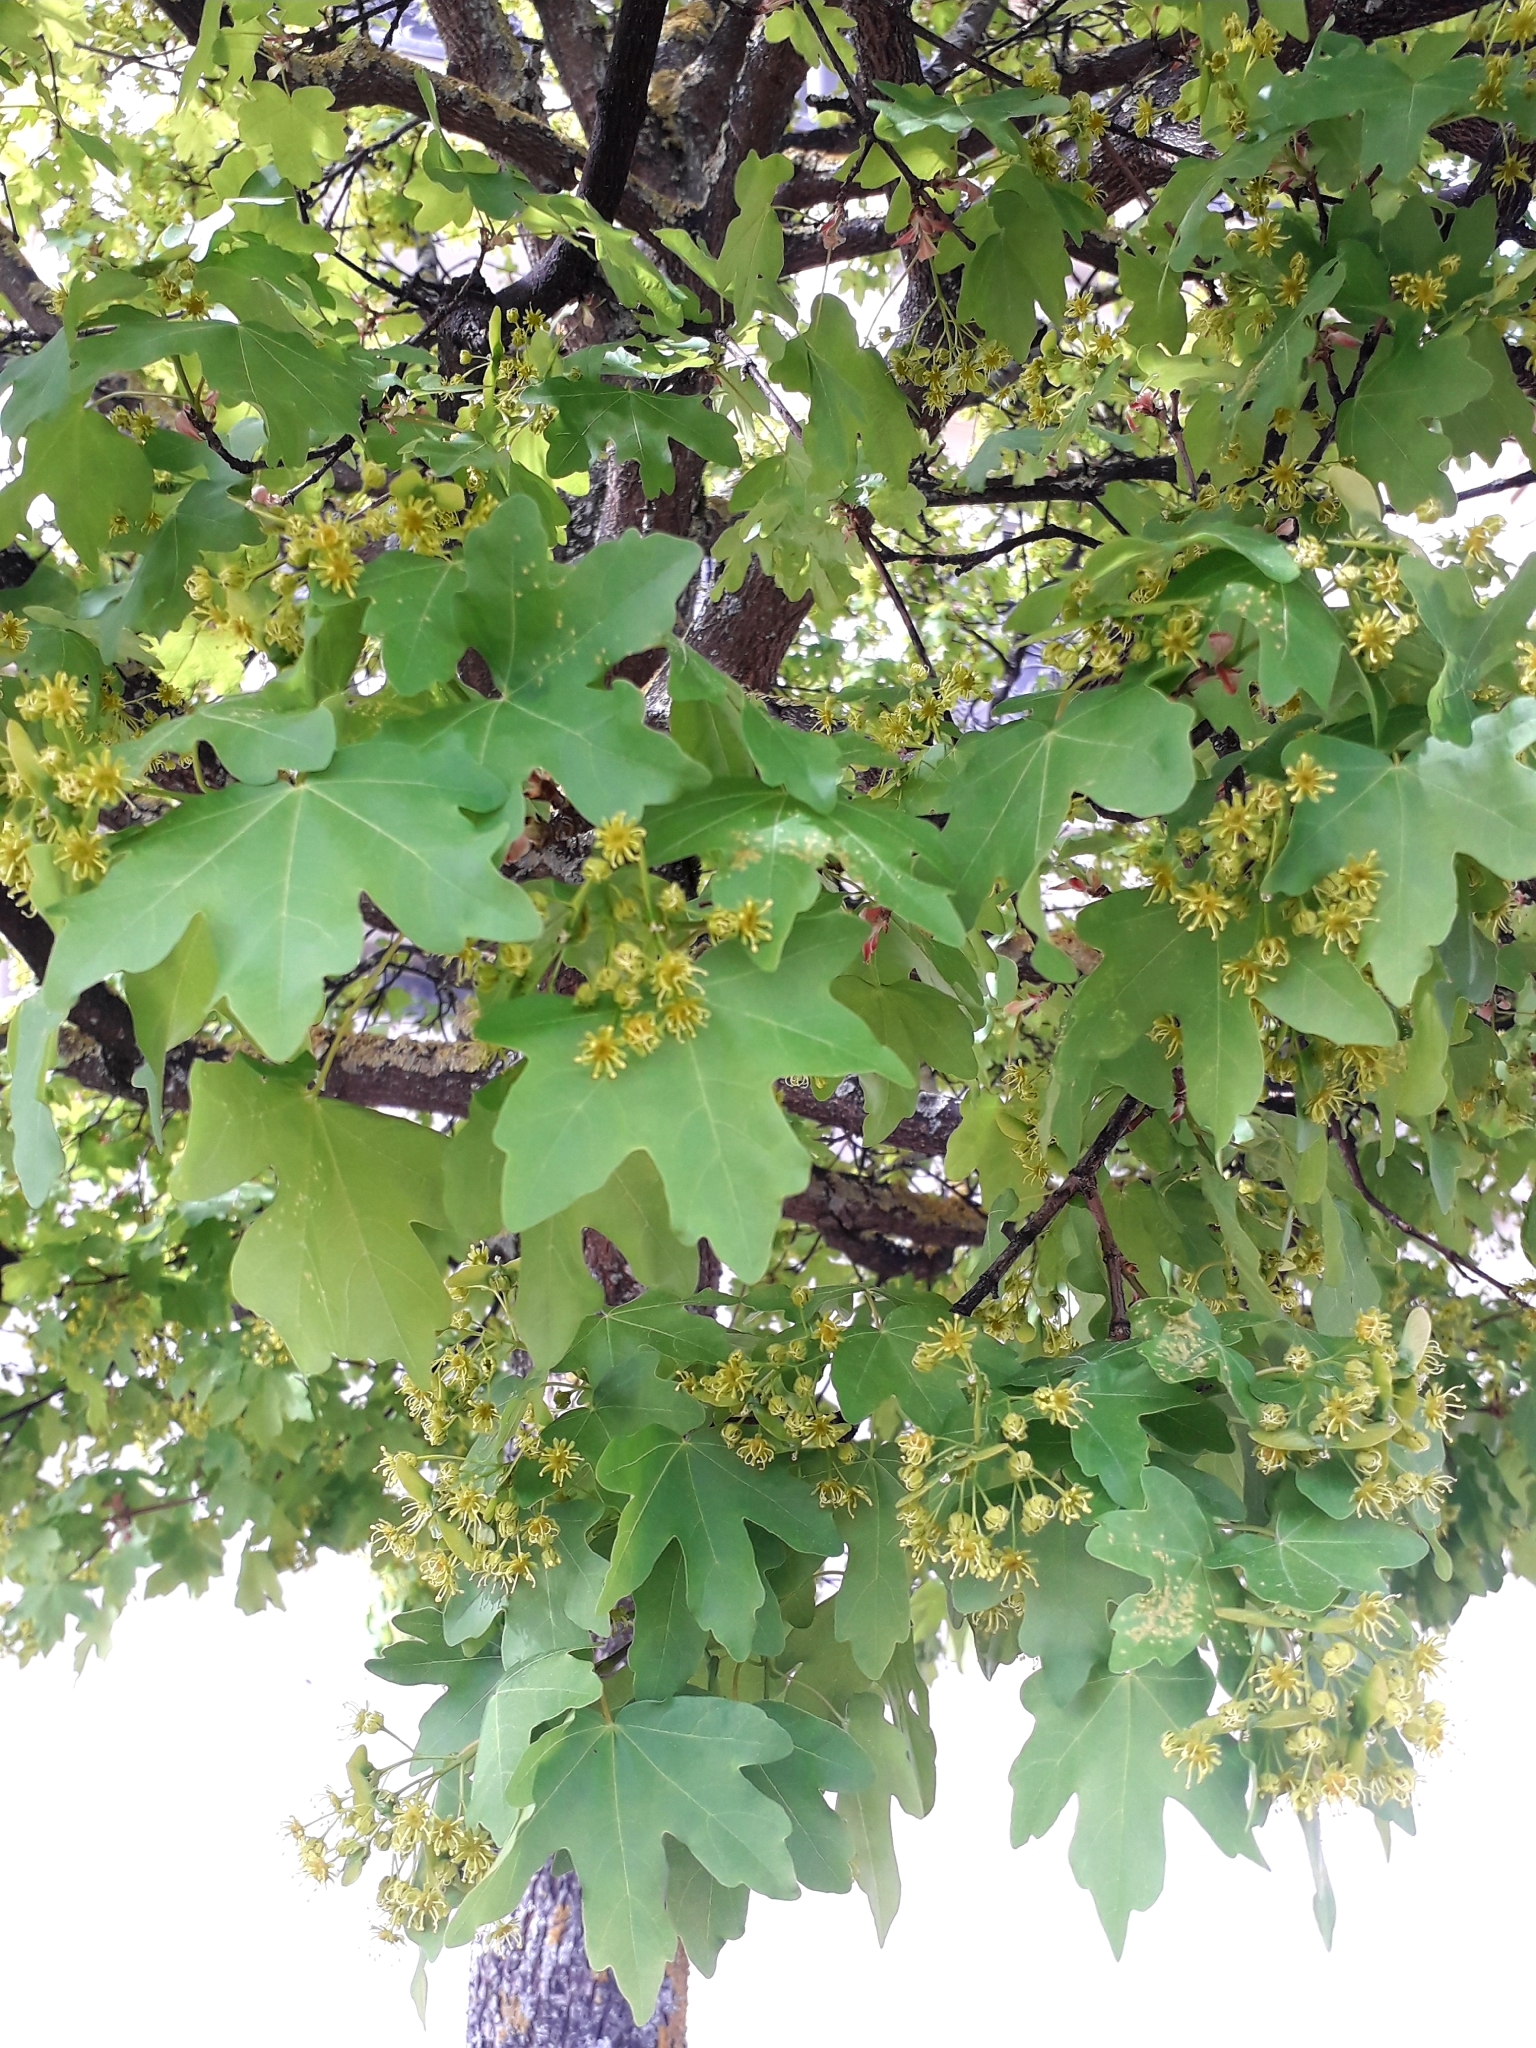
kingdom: Plantae
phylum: Tracheophyta
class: Magnoliopsida
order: Sapindales
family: Sapindaceae
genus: Acer
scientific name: Acer campestre
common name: Field maple
